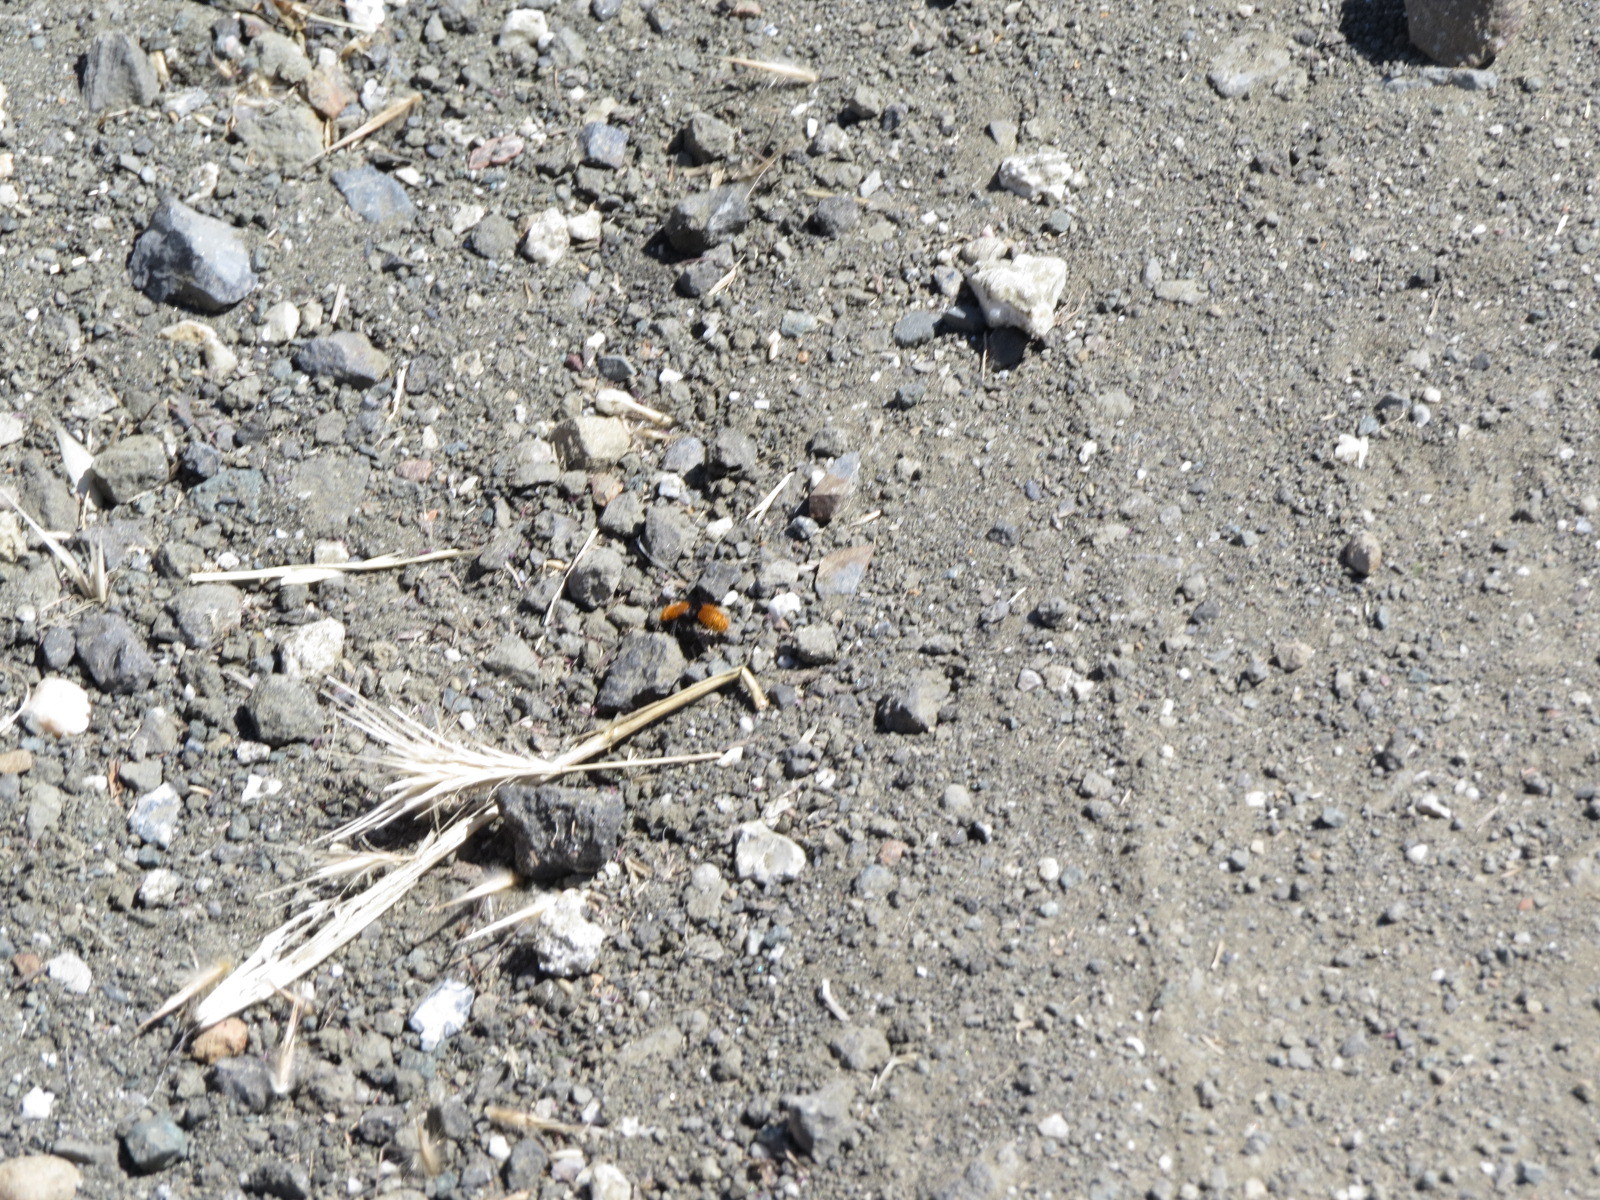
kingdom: Animalia
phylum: Arthropoda
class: Insecta
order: Hymenoptera
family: Mutillidae
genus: Dasymutilla
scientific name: Dasymutilla
